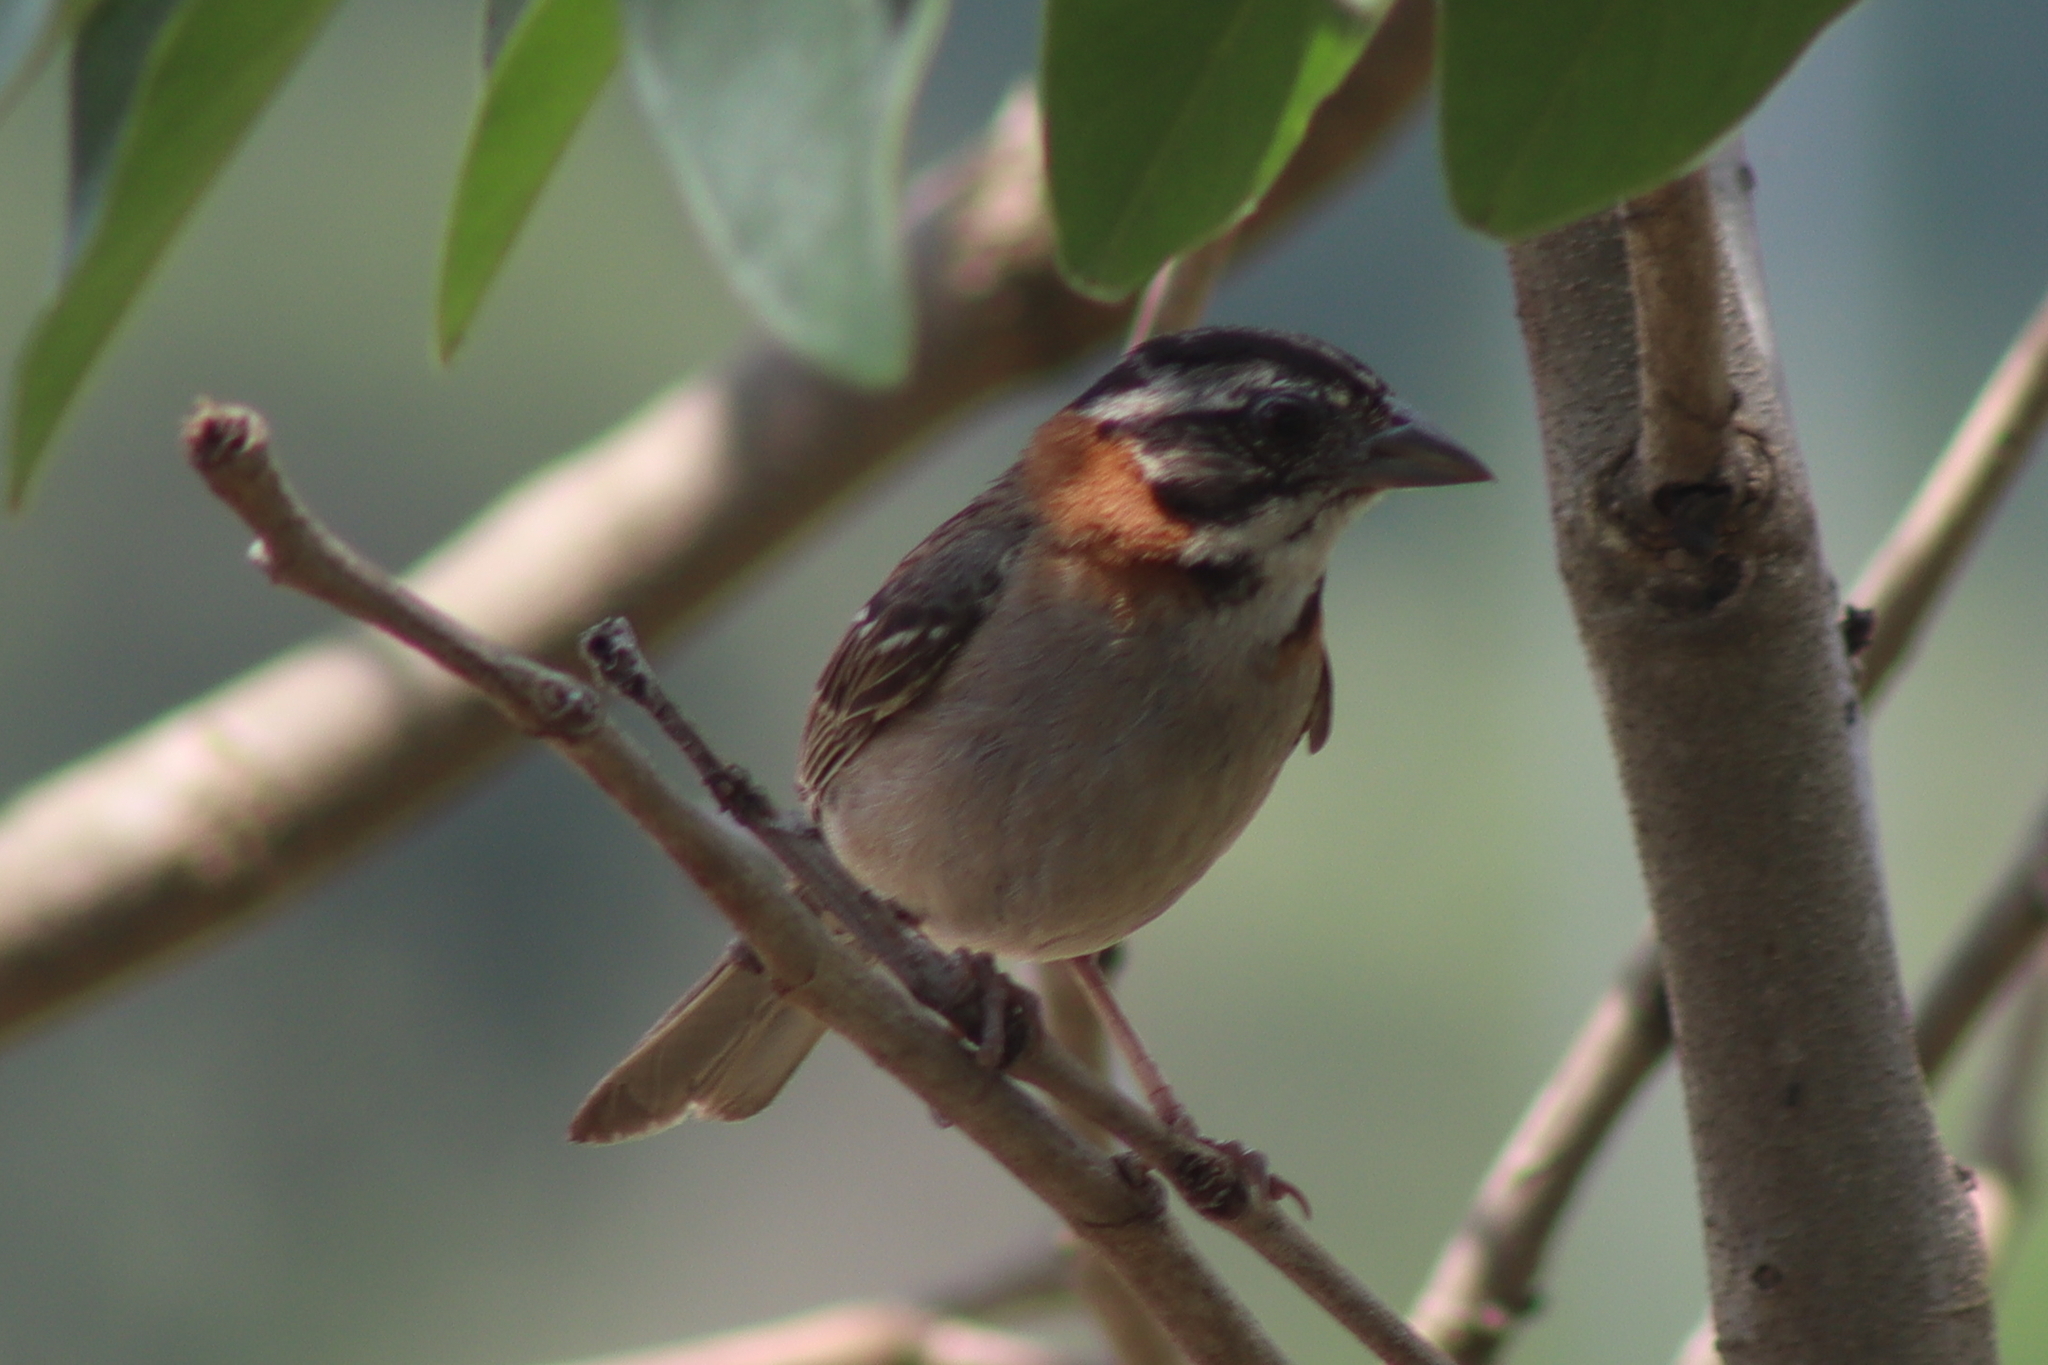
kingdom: Animalia
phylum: Chordata
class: Aves
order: Passeriformes
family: Passerellidae
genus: Zonotrichia
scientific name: Zonotrichia capensis
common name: Rufous-collared sparrow
